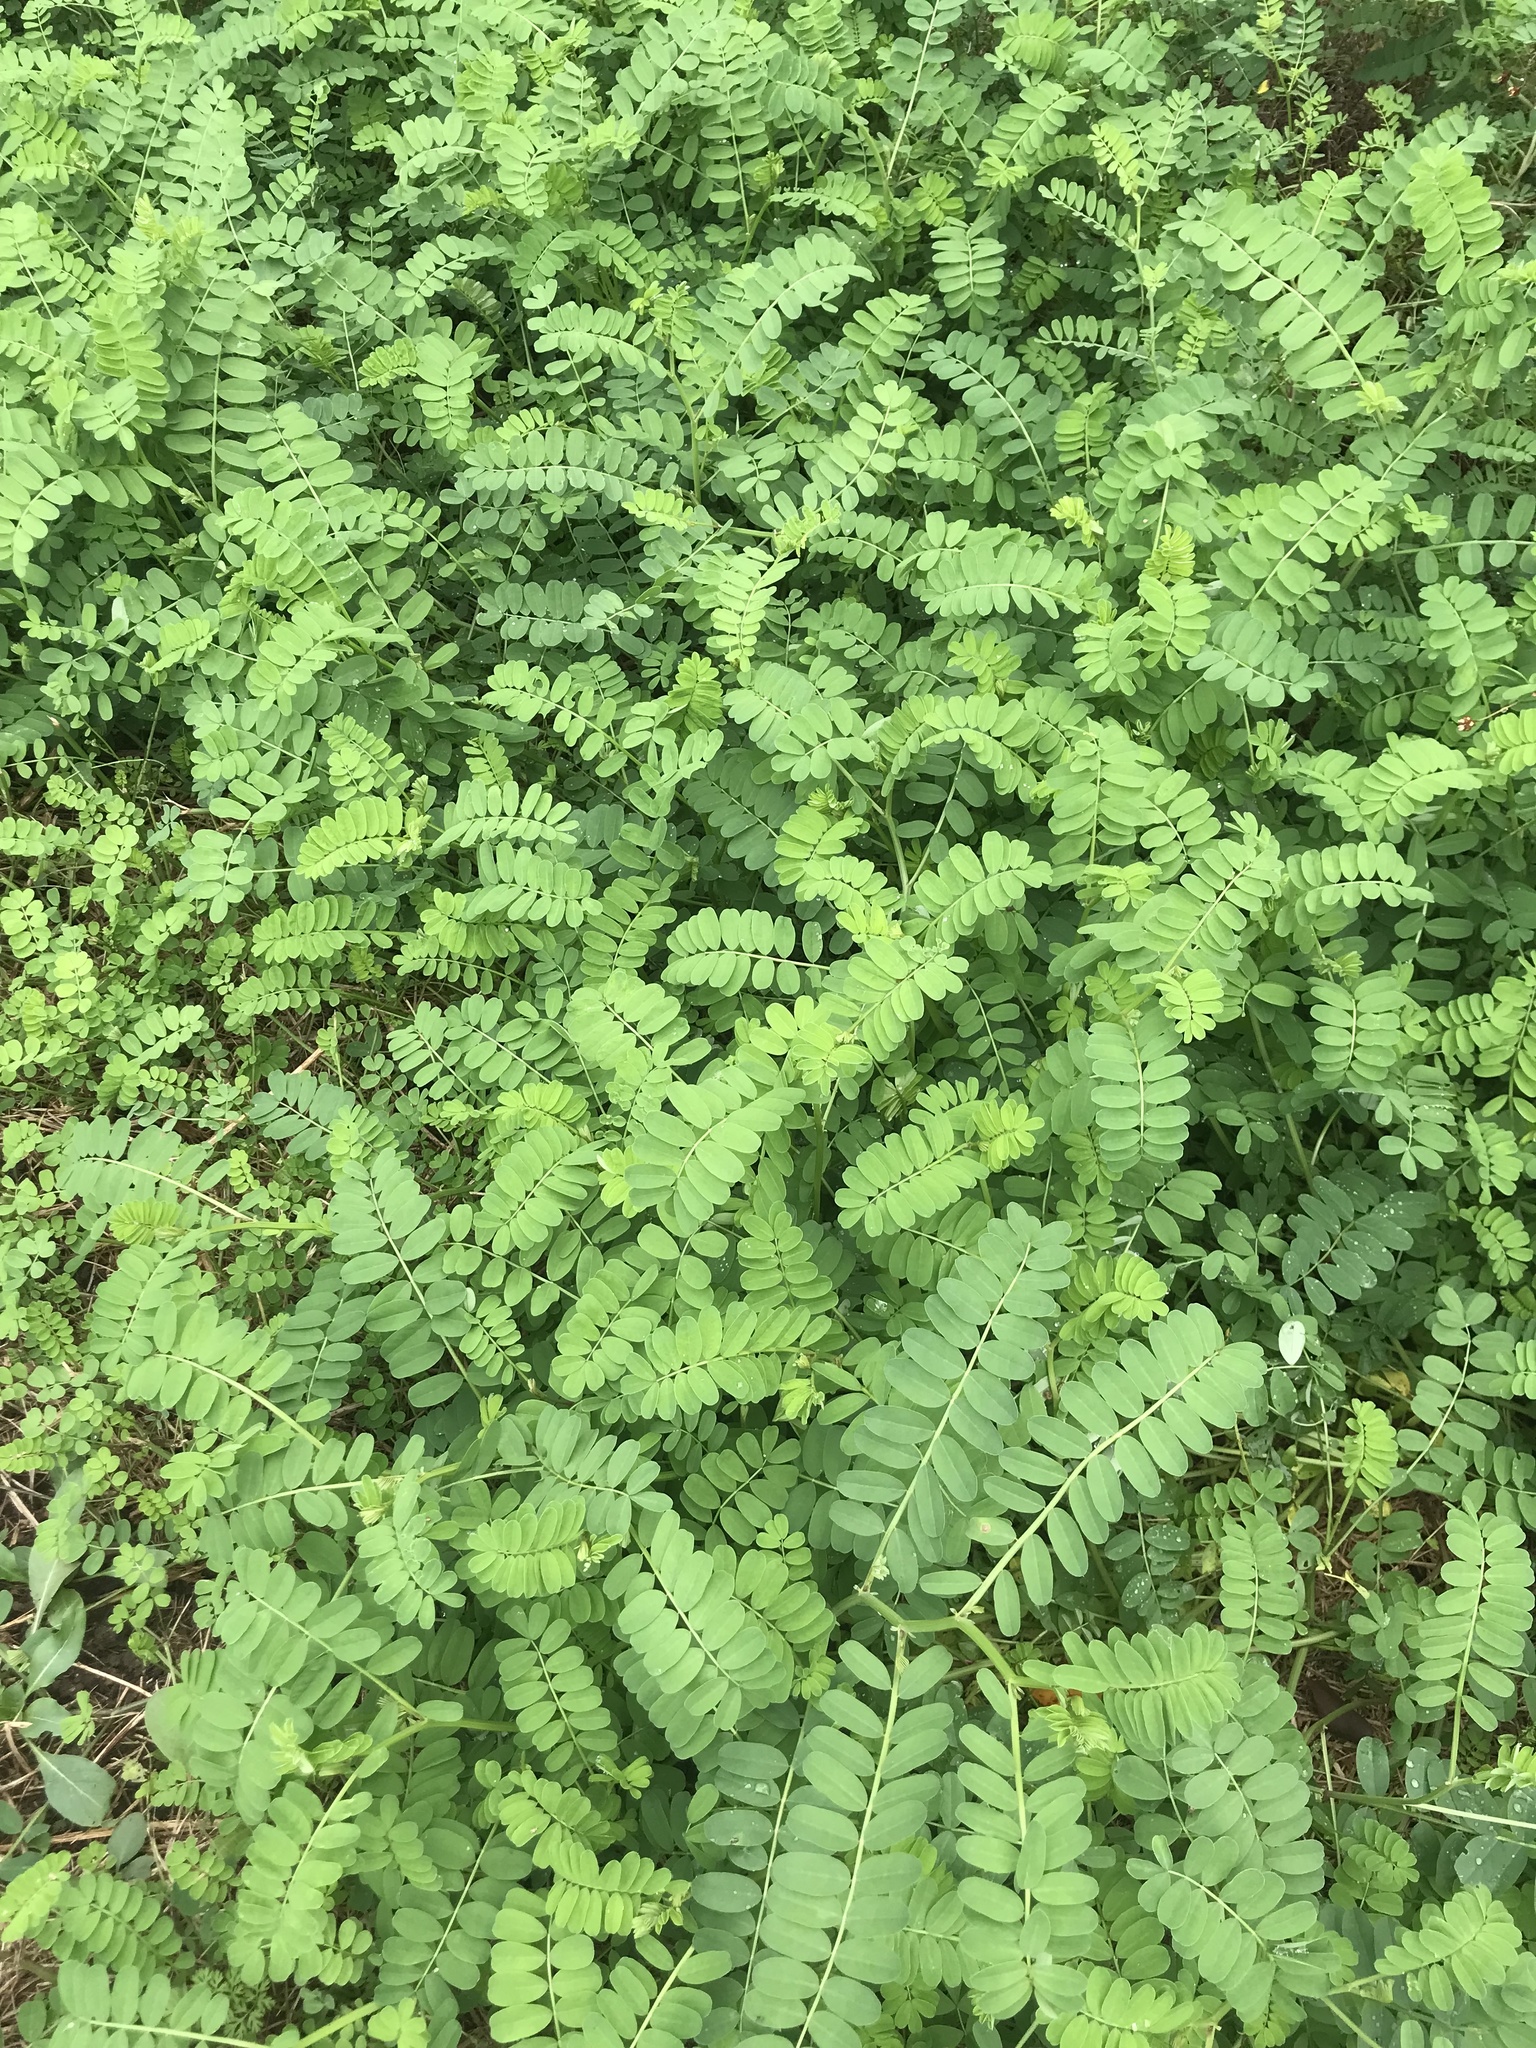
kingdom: Plantae
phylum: Tracheophyta
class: Magnoliopsida
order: Fabales
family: Fabaceae
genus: Coronilla
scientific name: Coronilla varia
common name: Crownvetch
